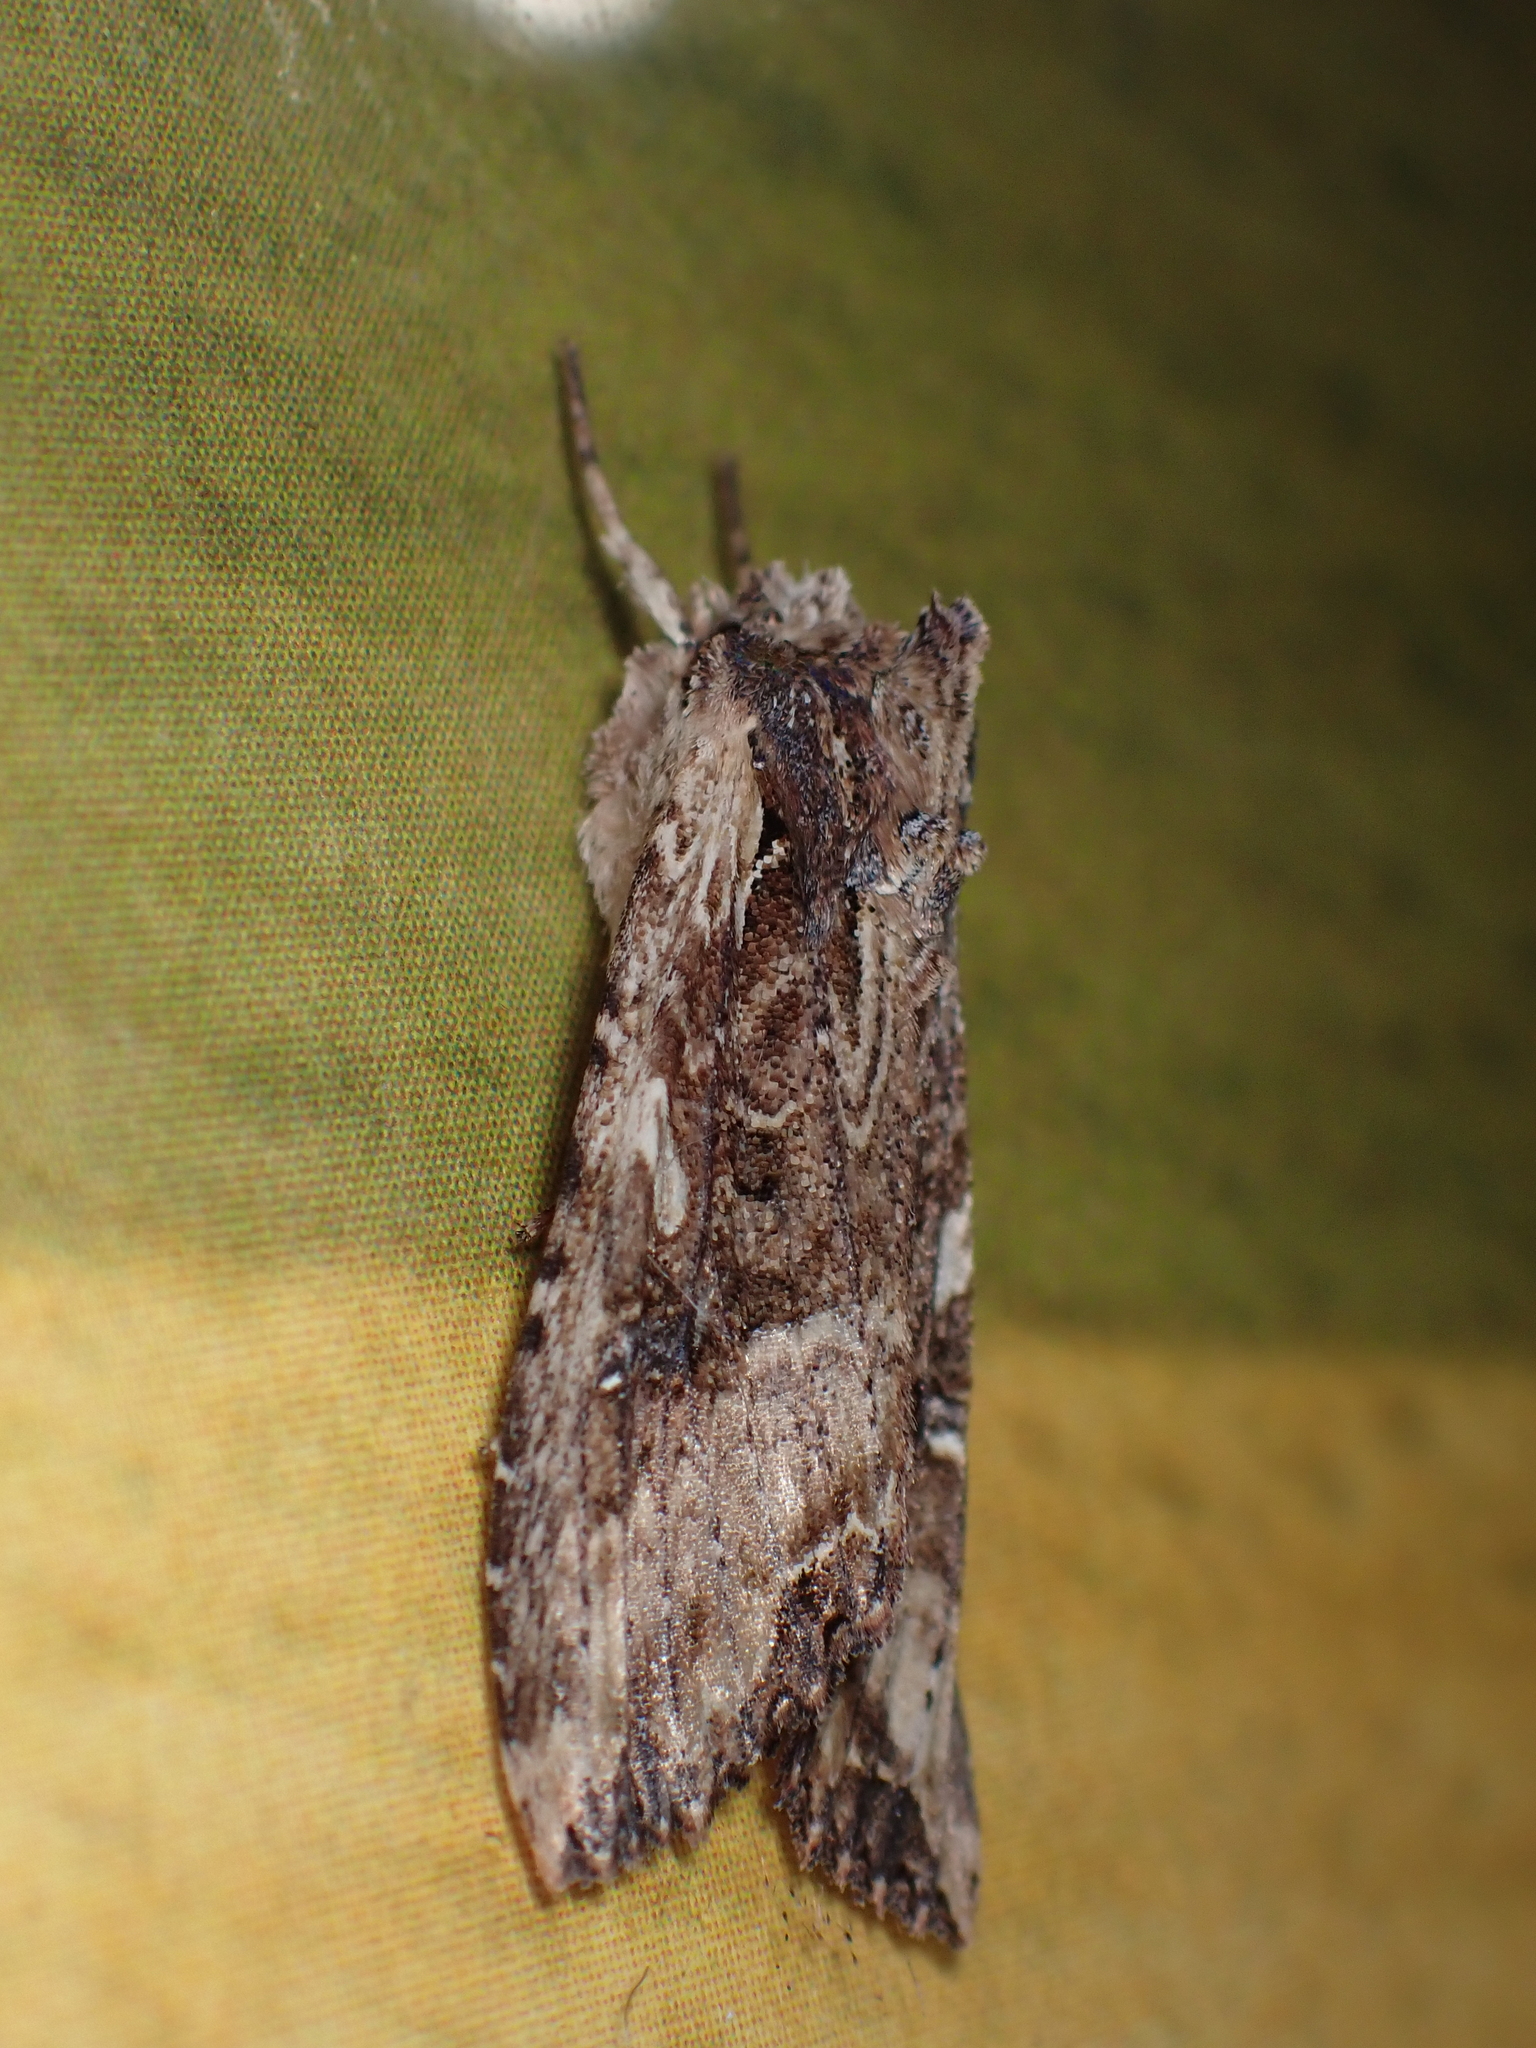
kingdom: Animalia
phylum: Arthropoda
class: Insecta
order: Lepidoptera
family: Noctuidae
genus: Meterana
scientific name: Meterana stipata
